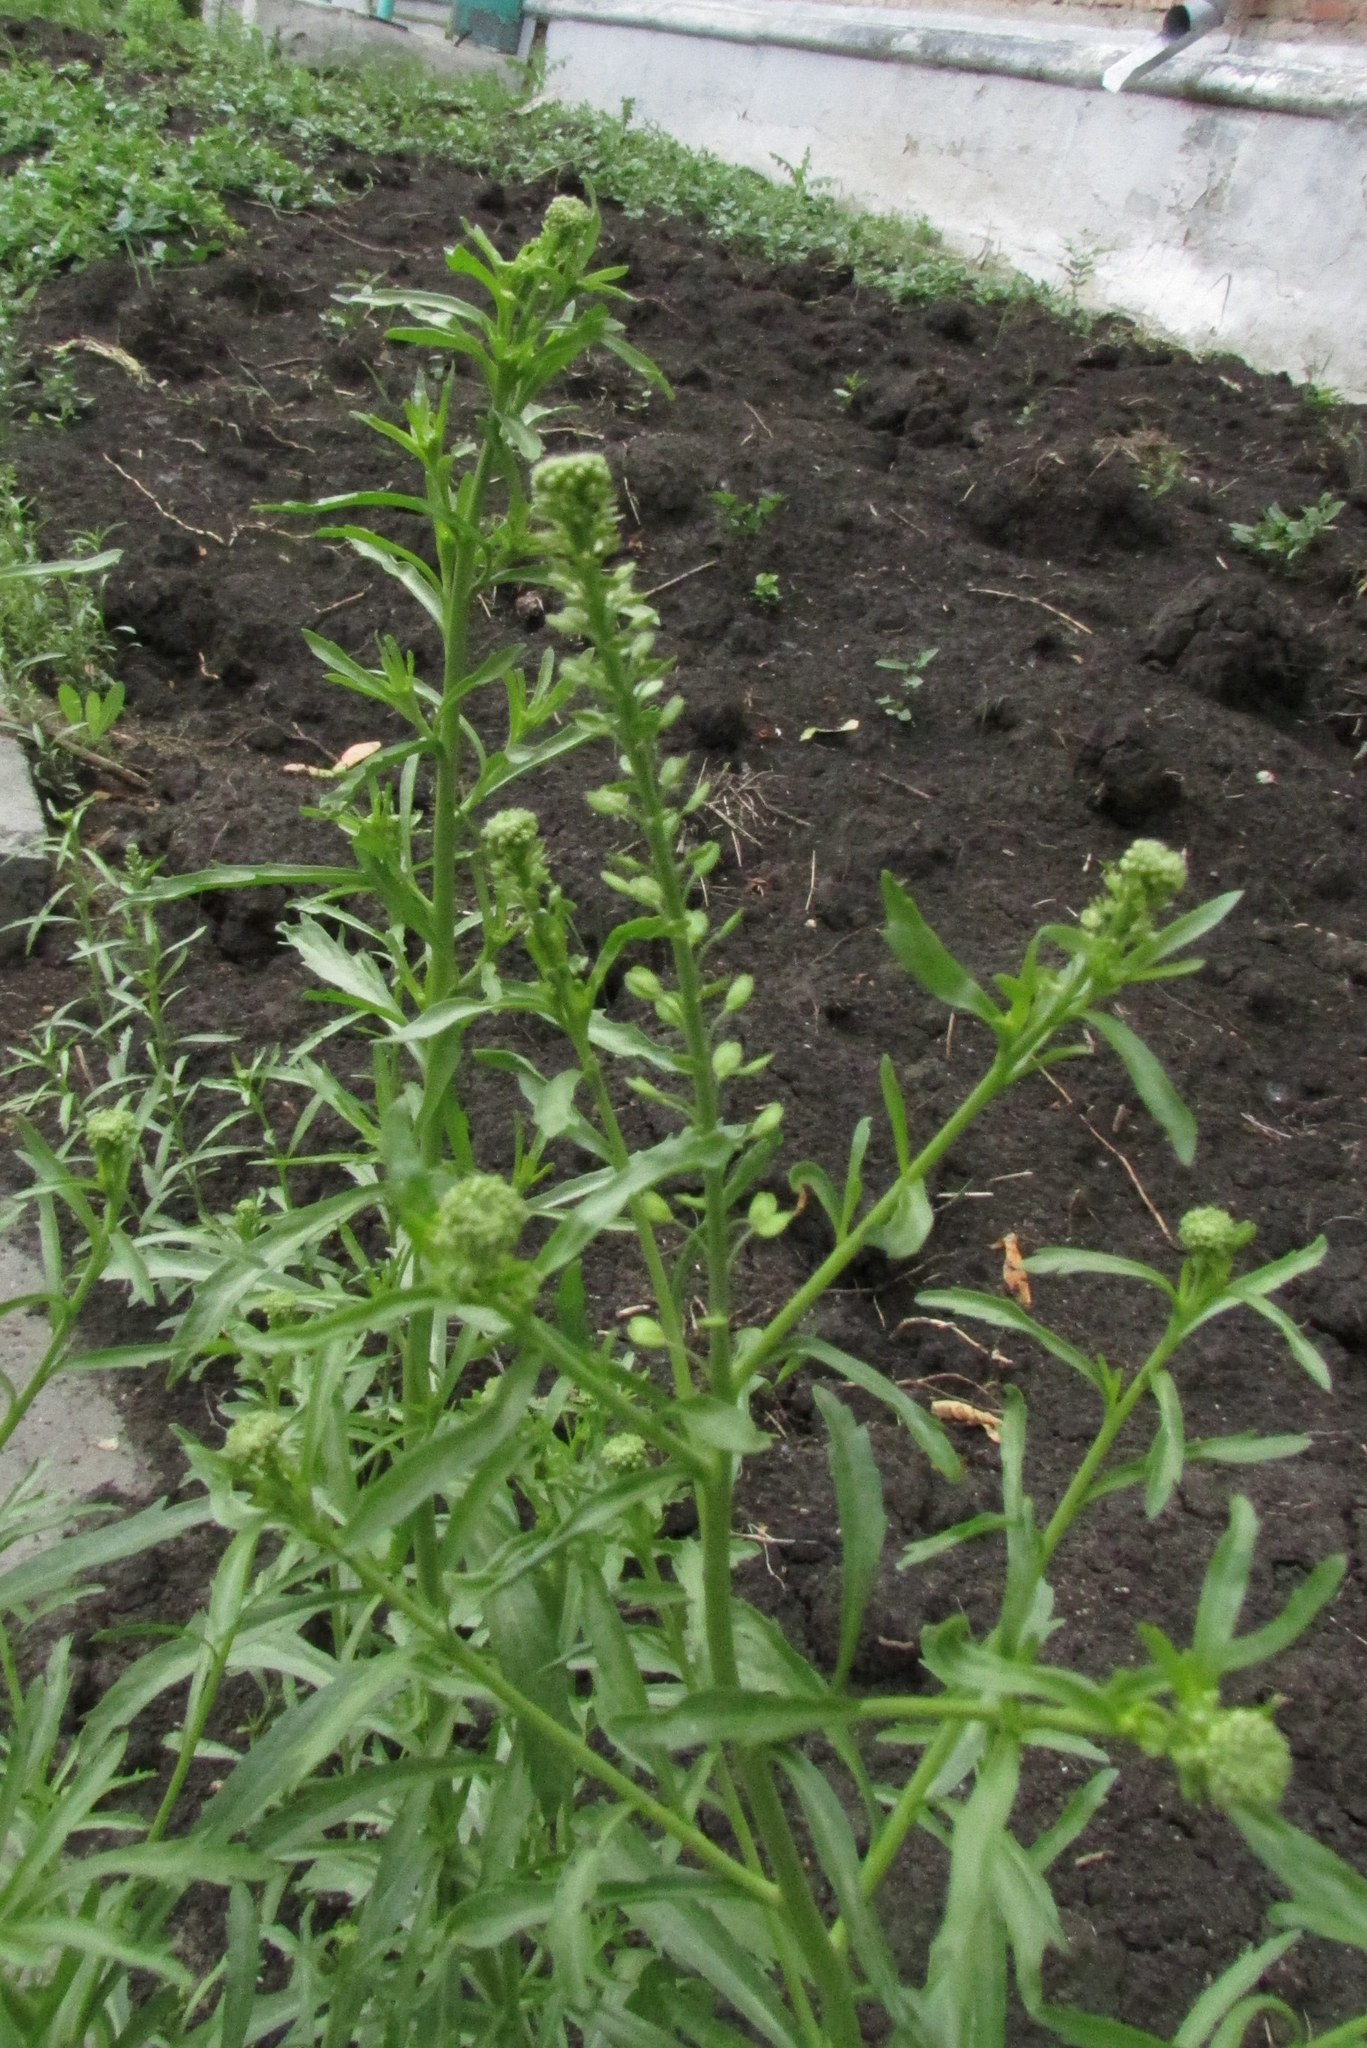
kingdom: Plantae
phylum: Tracheophyta
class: Magnoliopsida
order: Brassicales
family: Brassicaceae
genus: Lepidium
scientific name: Lepidium densiflorum
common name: Miner's pepperwort
